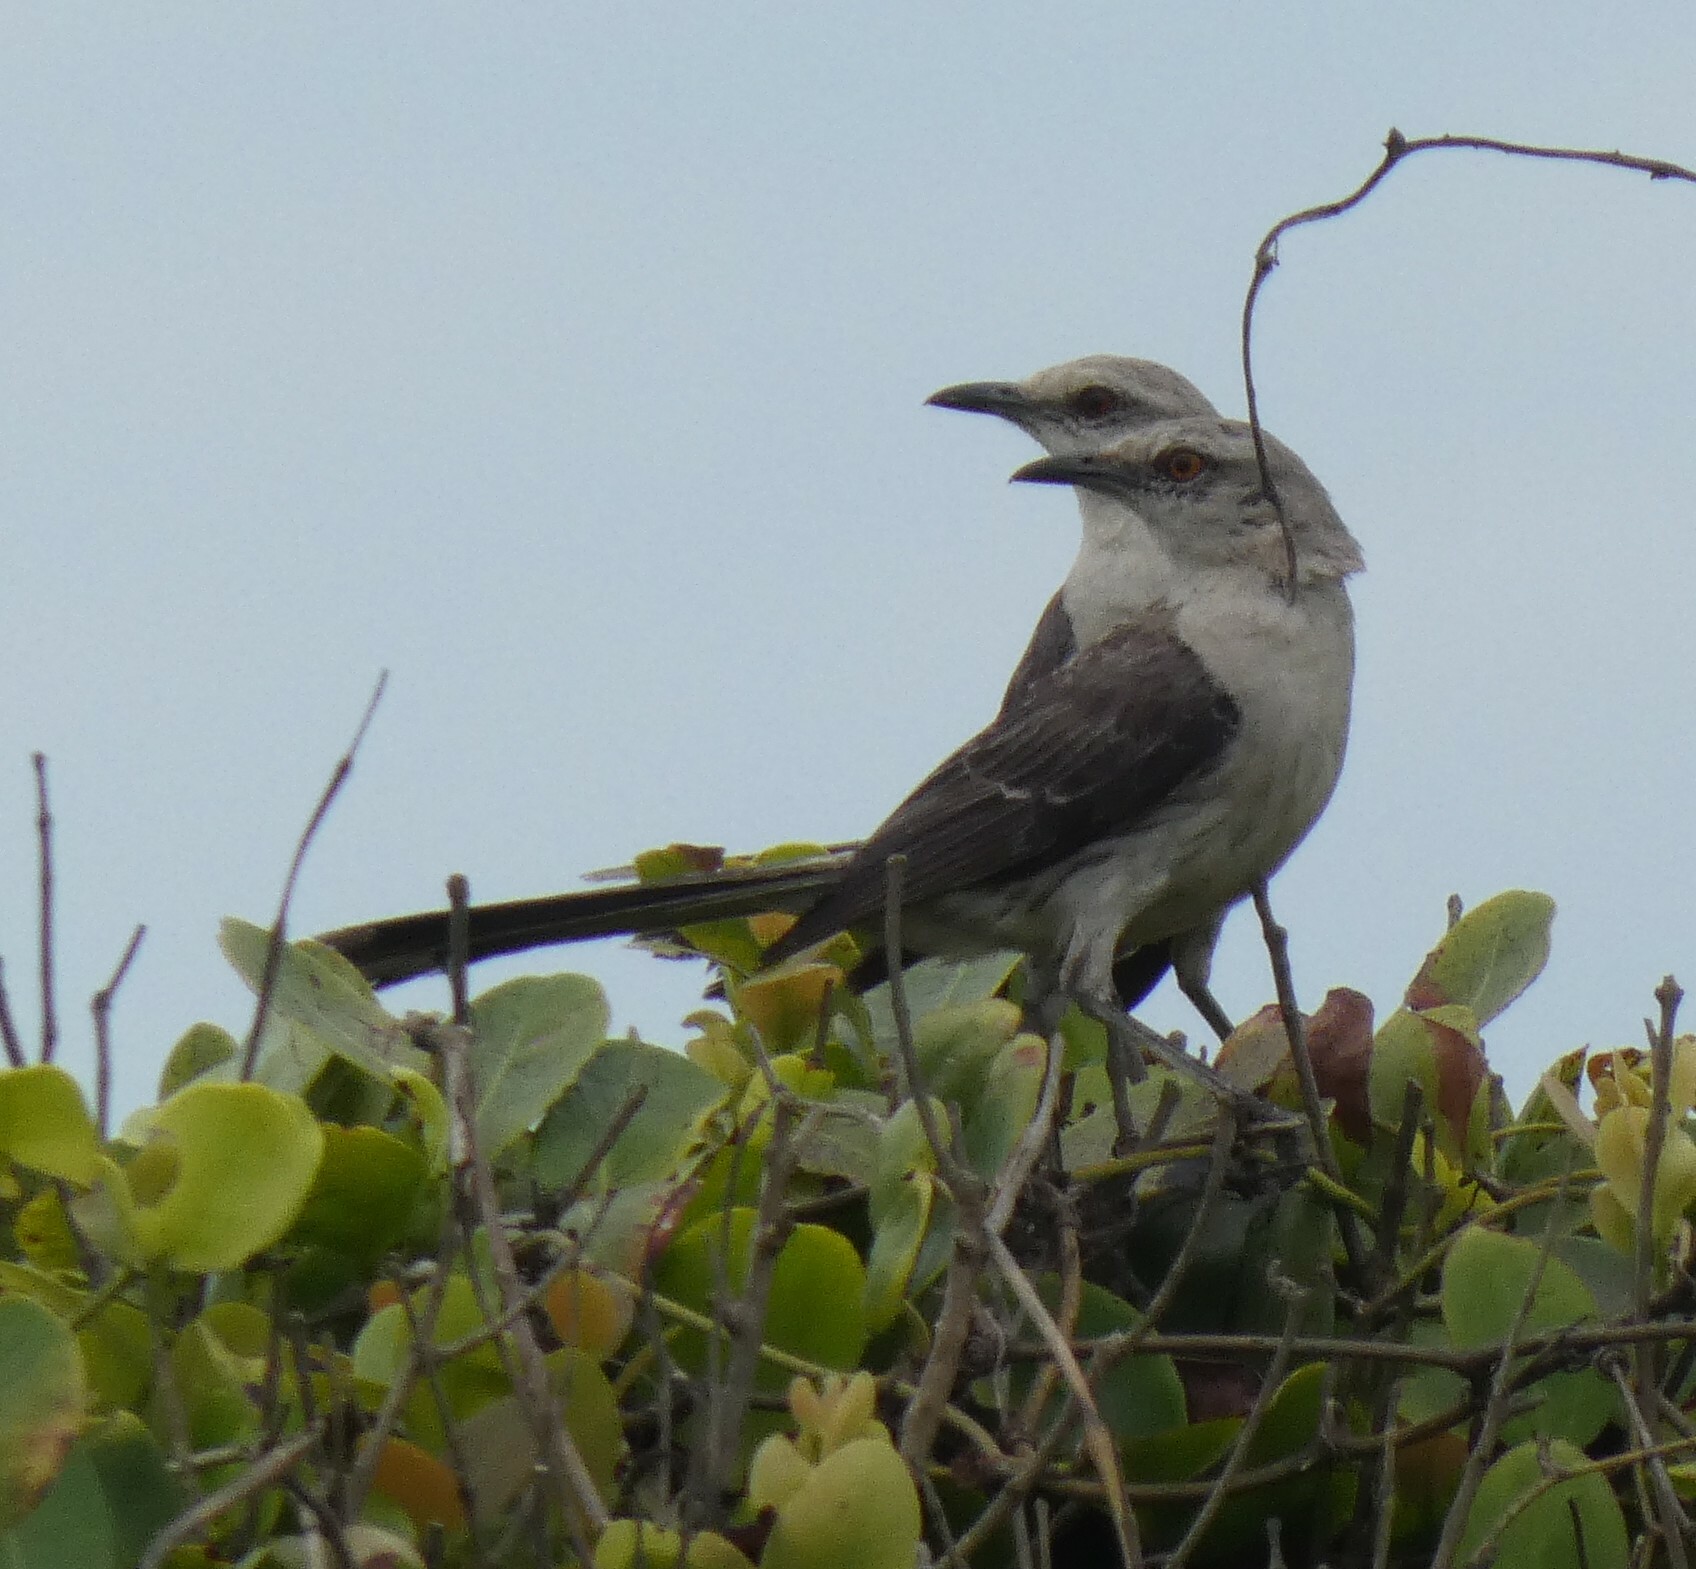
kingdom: Animalia
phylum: Chordata
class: Aves
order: Passeriformes
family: Mimidae
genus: Mimus
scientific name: Mimus gilvus
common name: Tropical mockingbird
